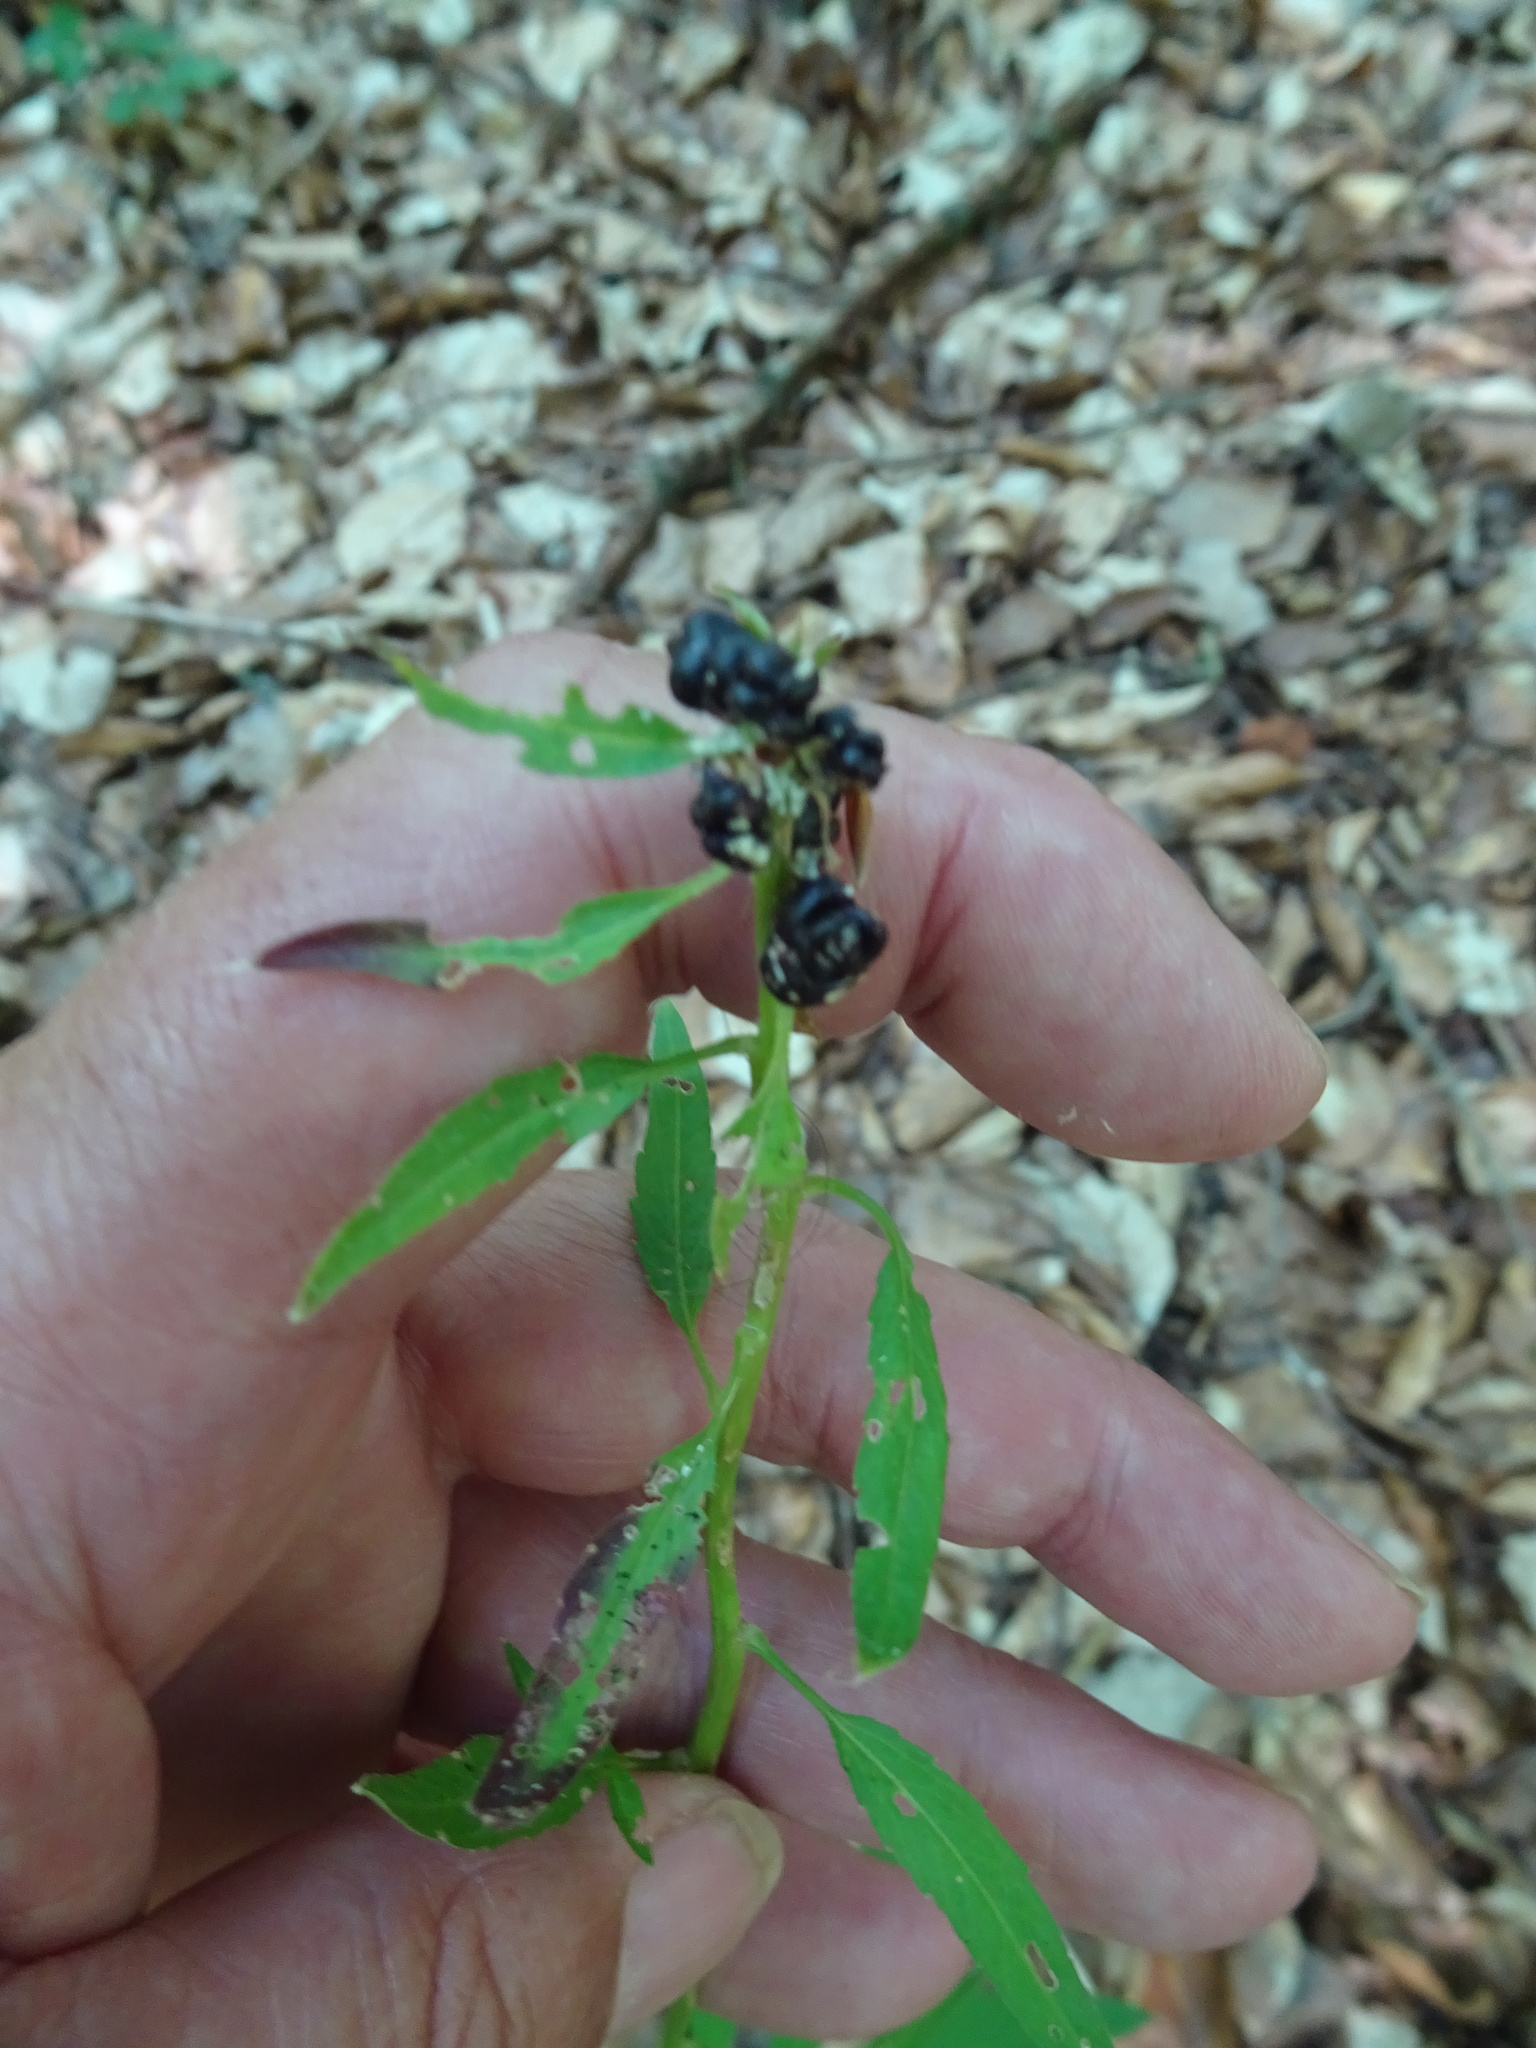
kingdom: Plantae
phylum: Tracheophyta
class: Magnoliopsida
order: Brassicales
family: Brassicaceae
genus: Cardamine
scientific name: Cardamine bulbifera
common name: Coralroot bittercress
